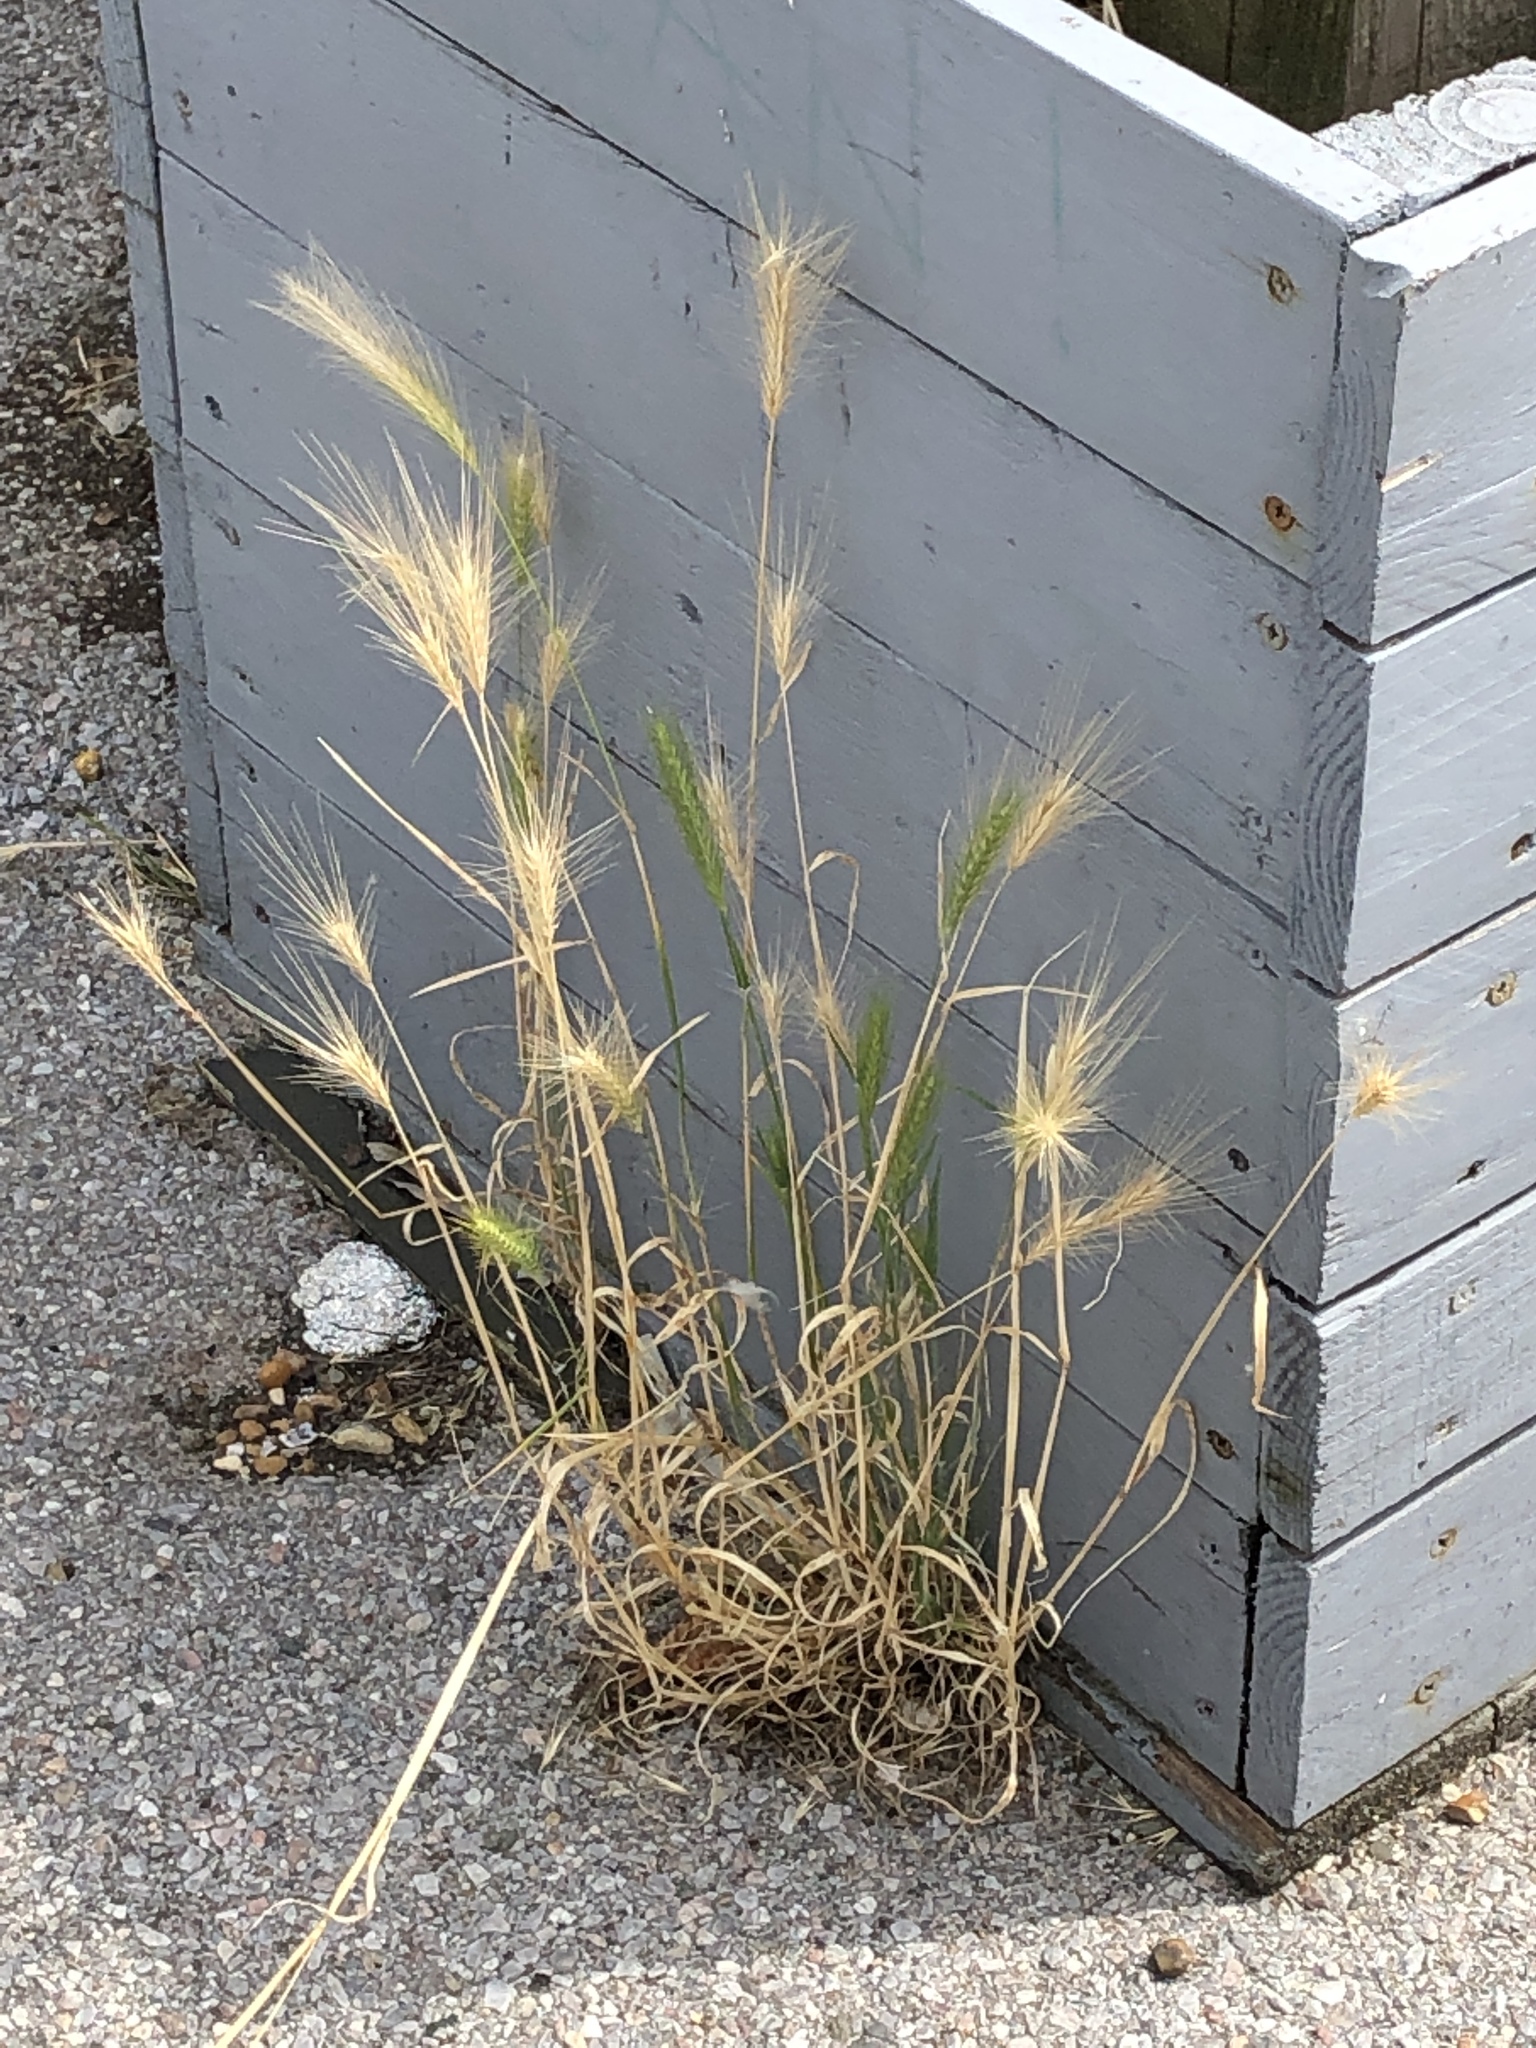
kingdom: Plantae
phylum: Tracheophyta
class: Liliopsida
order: Poales
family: Poaceae
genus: Hordeum
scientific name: Hordeum murinum
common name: Wall barley
